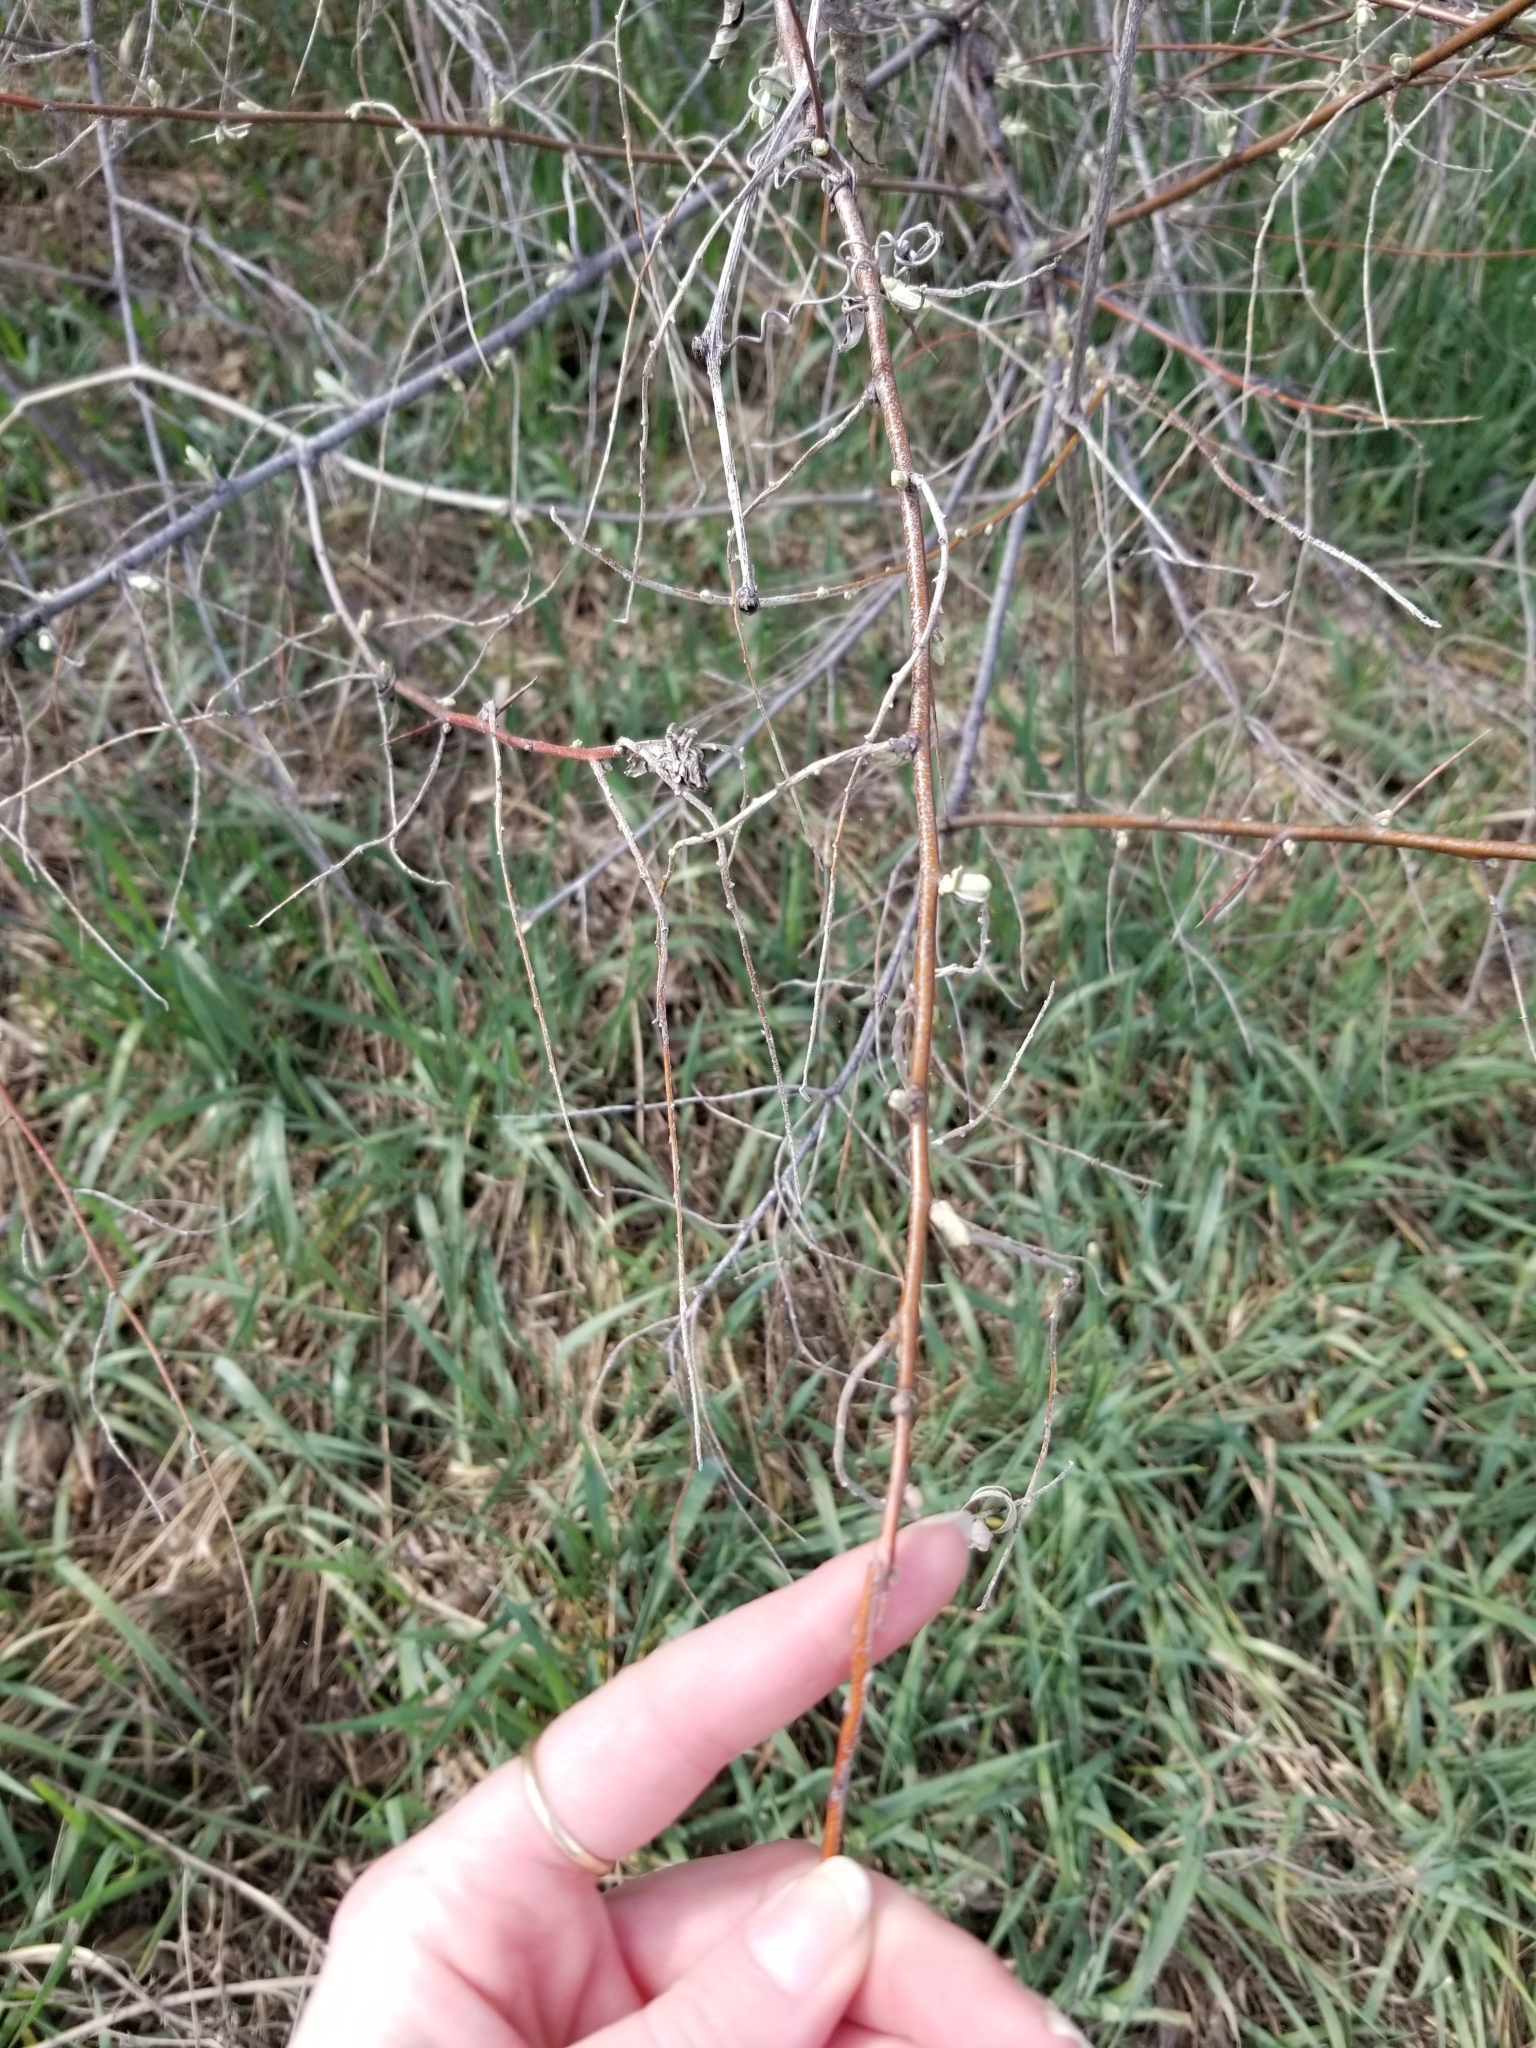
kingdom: Plantae
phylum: Tracheophyta
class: Magnoliopsida
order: Rosales
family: Elaeagnaceae
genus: Elaeagnus
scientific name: Elaeagnus angustifolia
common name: Russian olive
